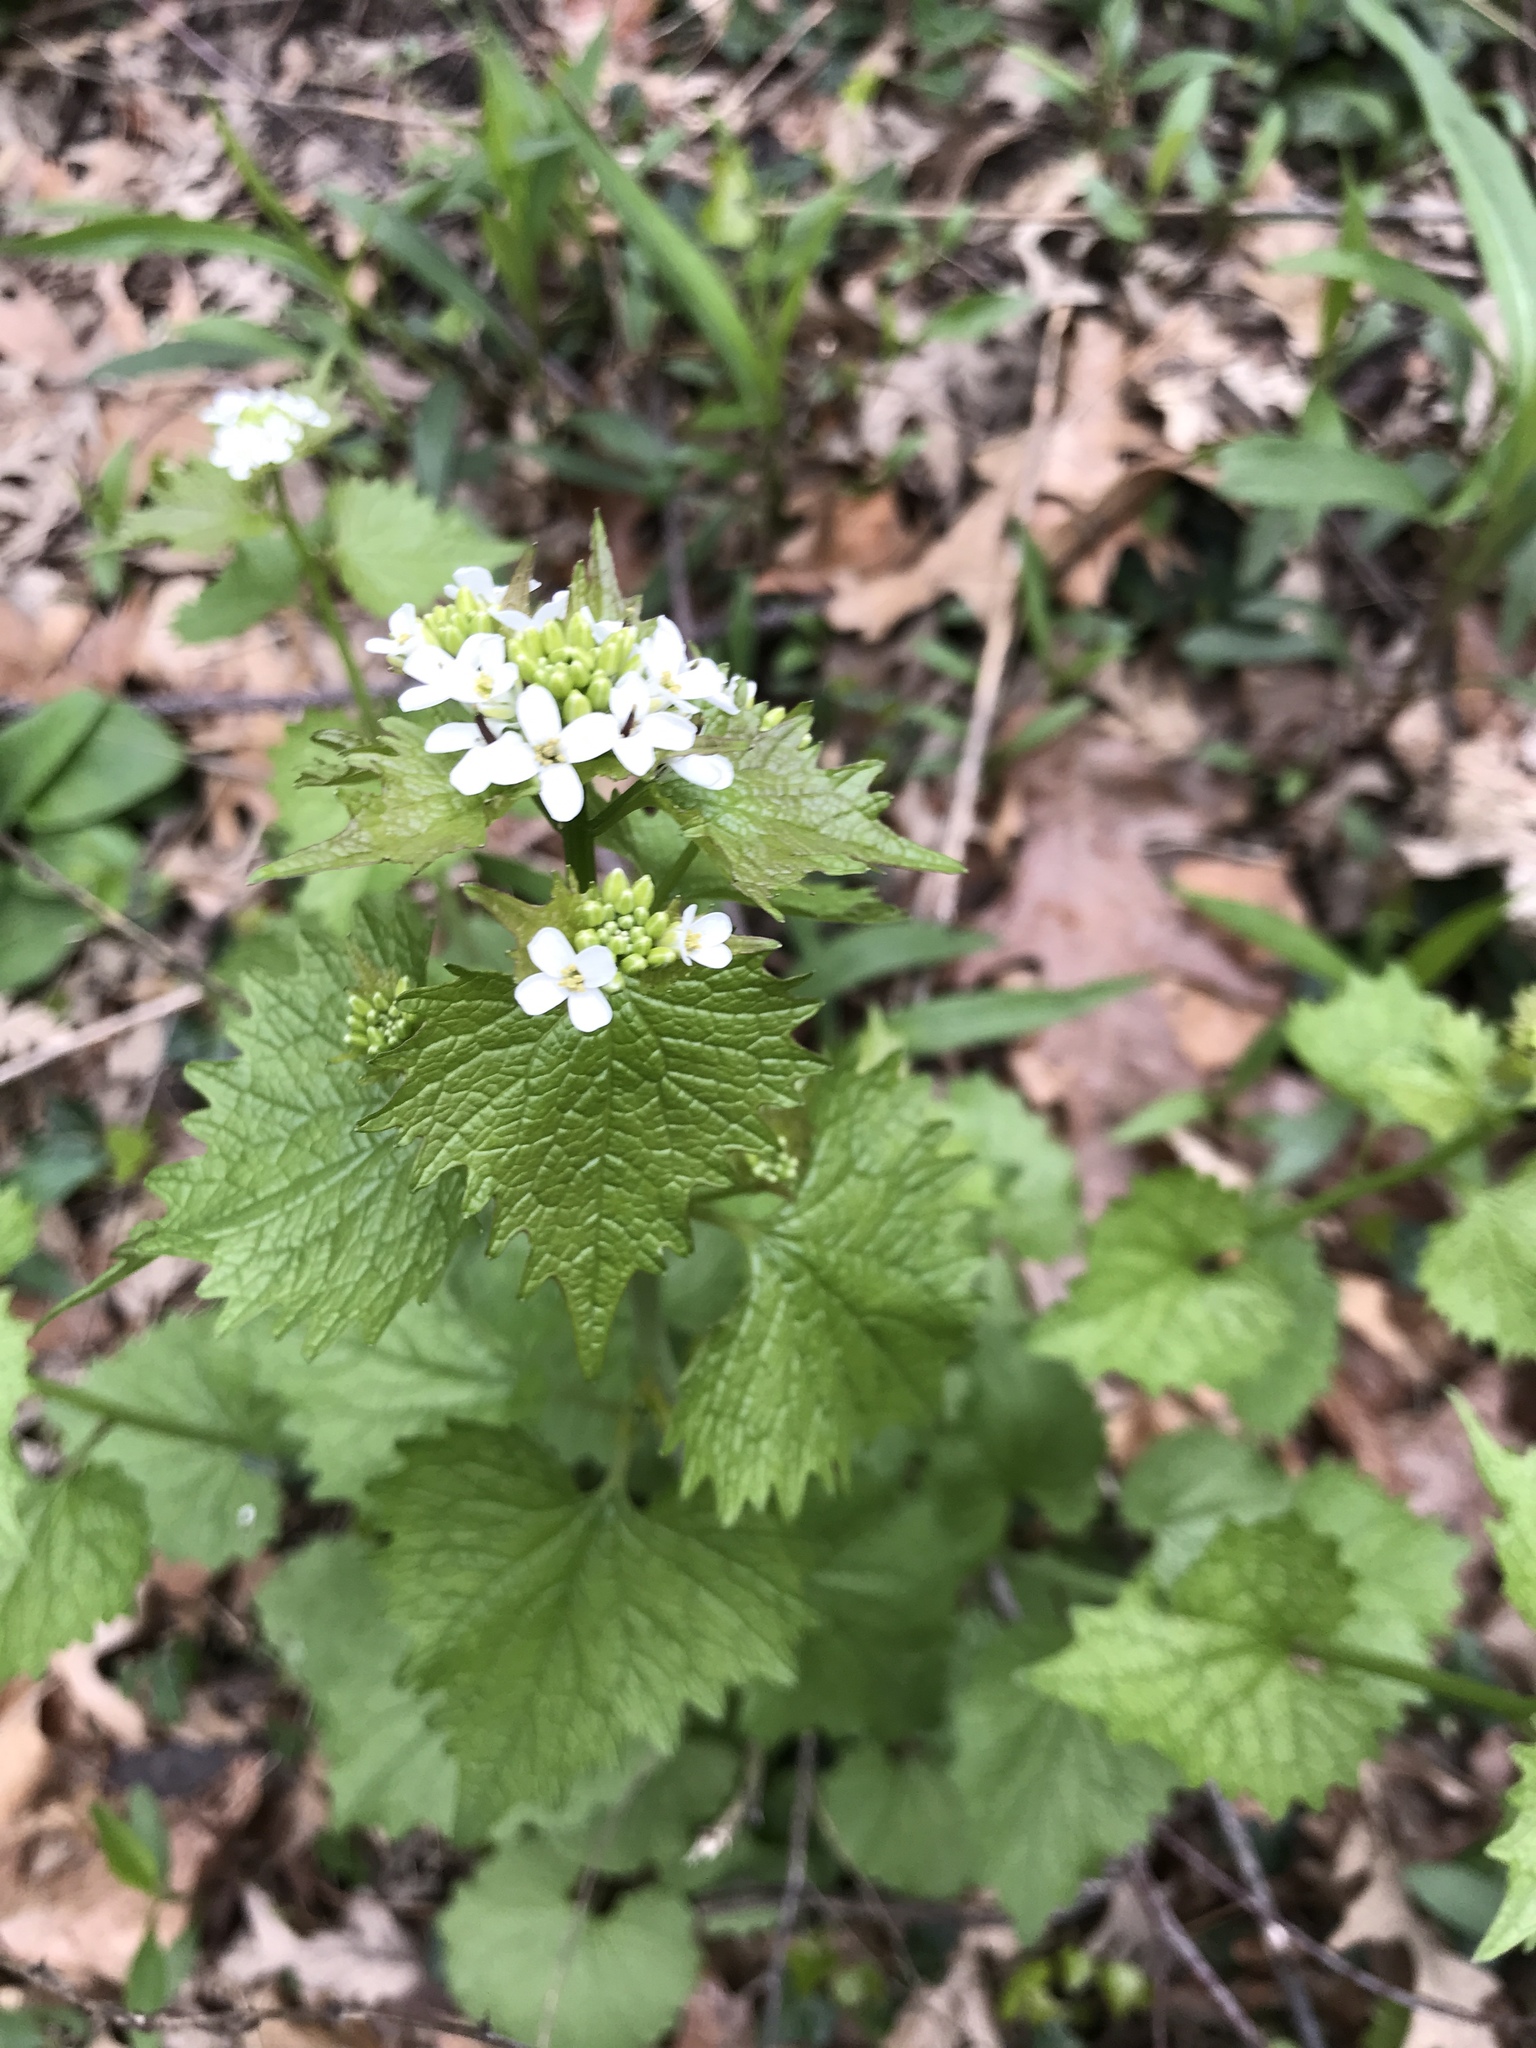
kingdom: Plantae
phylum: Tracheophyta
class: Magnoliopsida
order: Brassicales
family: Brassicaceae
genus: Alliaria
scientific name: Alliaria petiolata
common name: Garlic mustard
